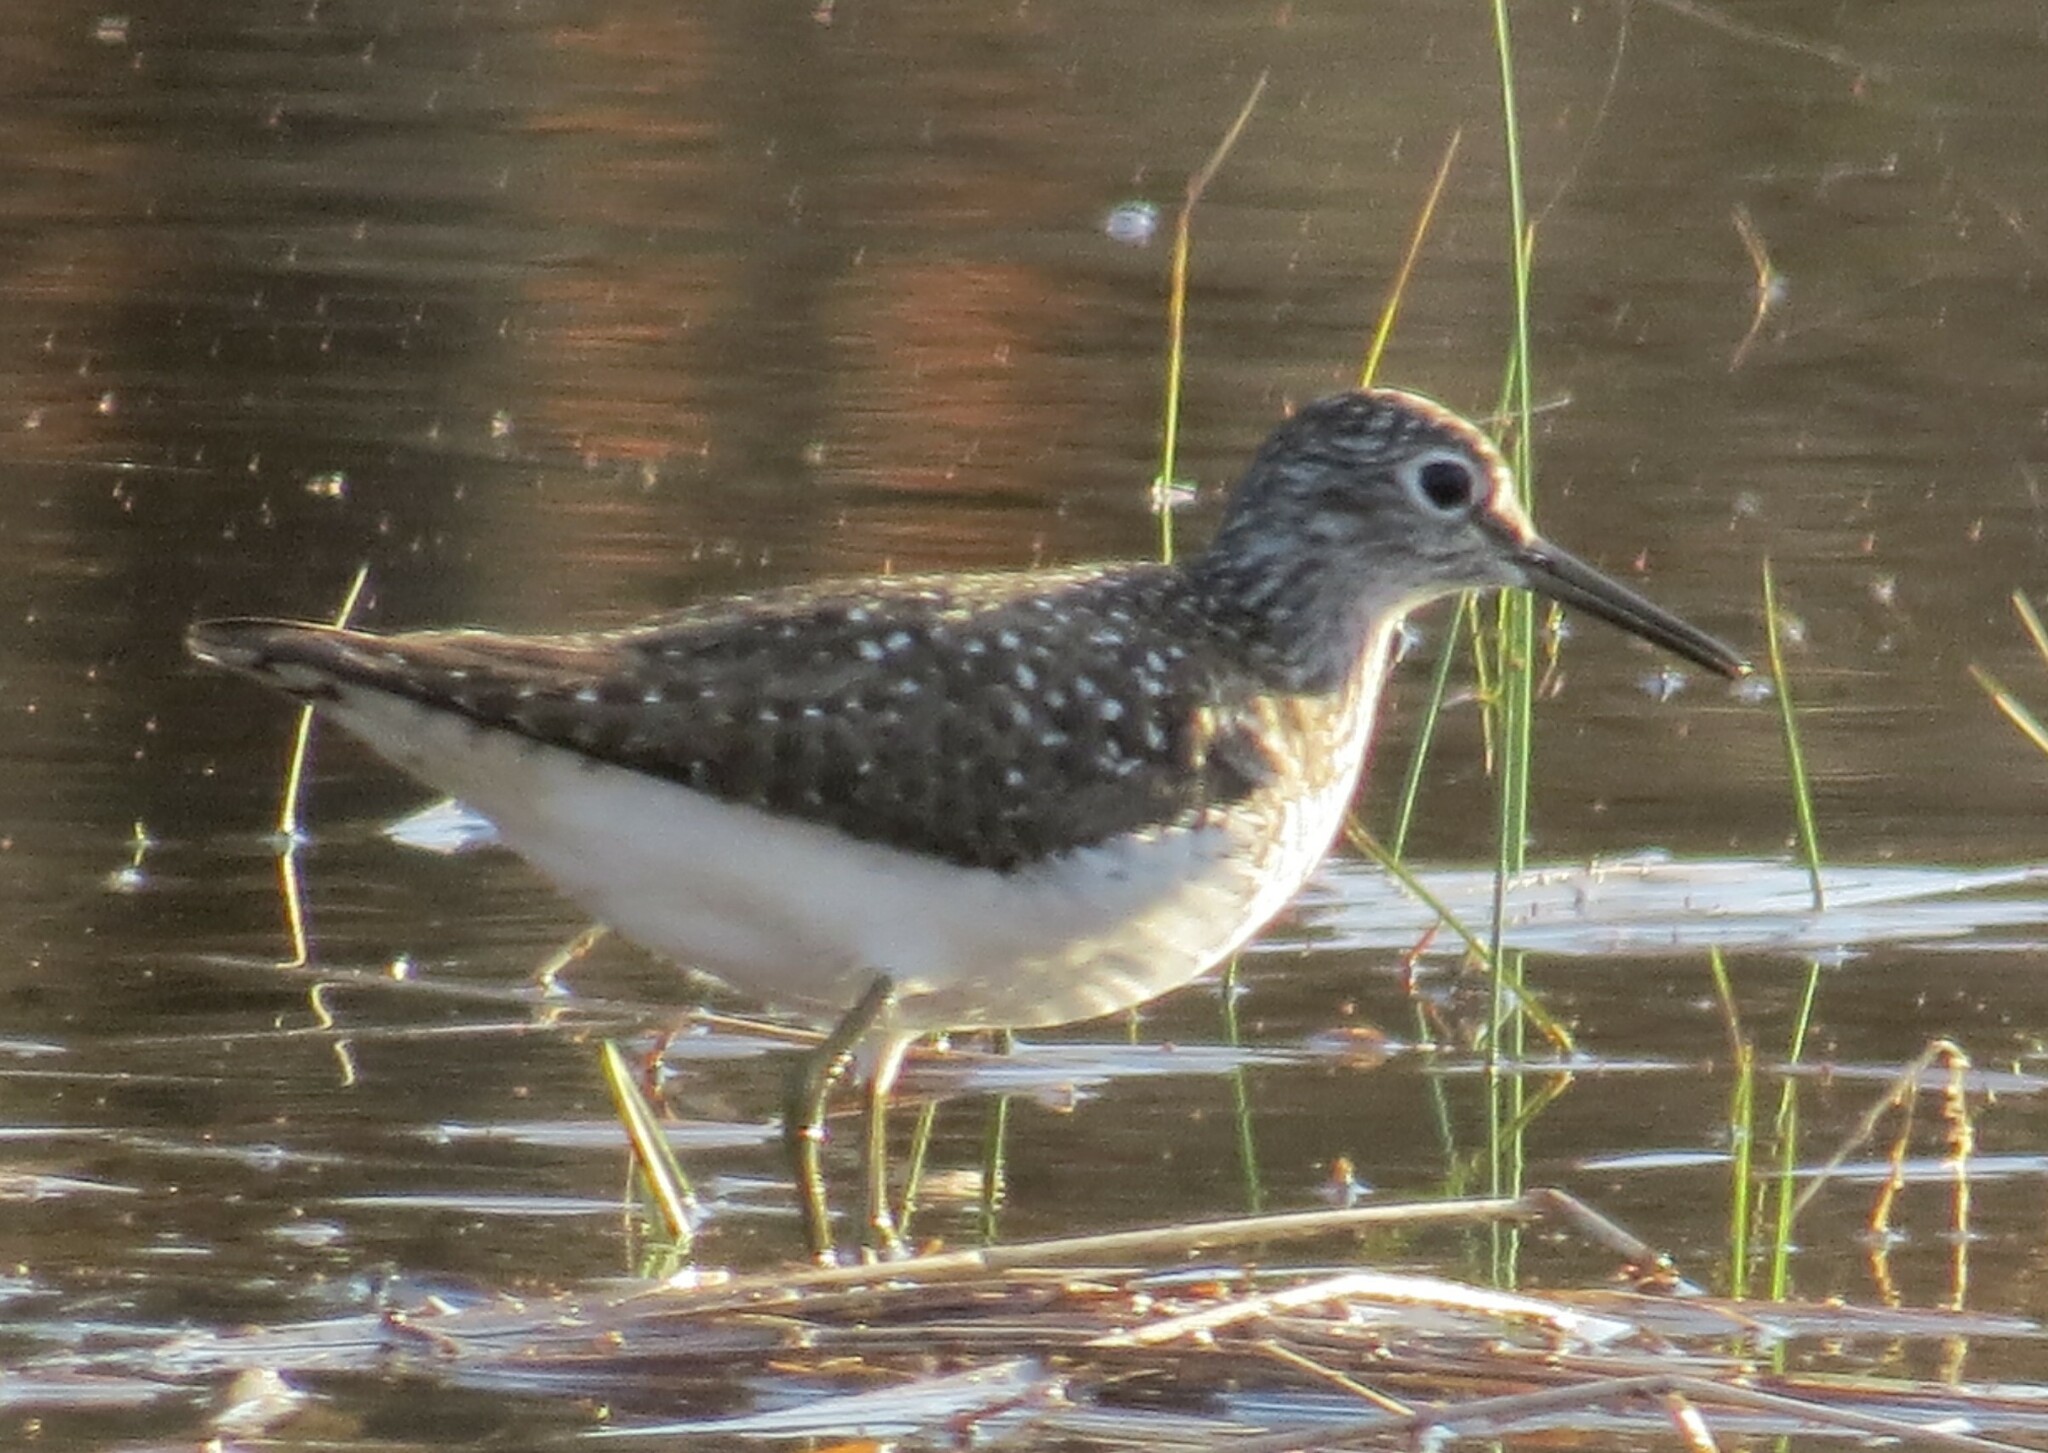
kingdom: Animalia
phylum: Chordata
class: Aves
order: Charadriiformes
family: Scolopacidae
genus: Tringa
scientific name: Tringa solitaria
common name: Solitary sandpiper
